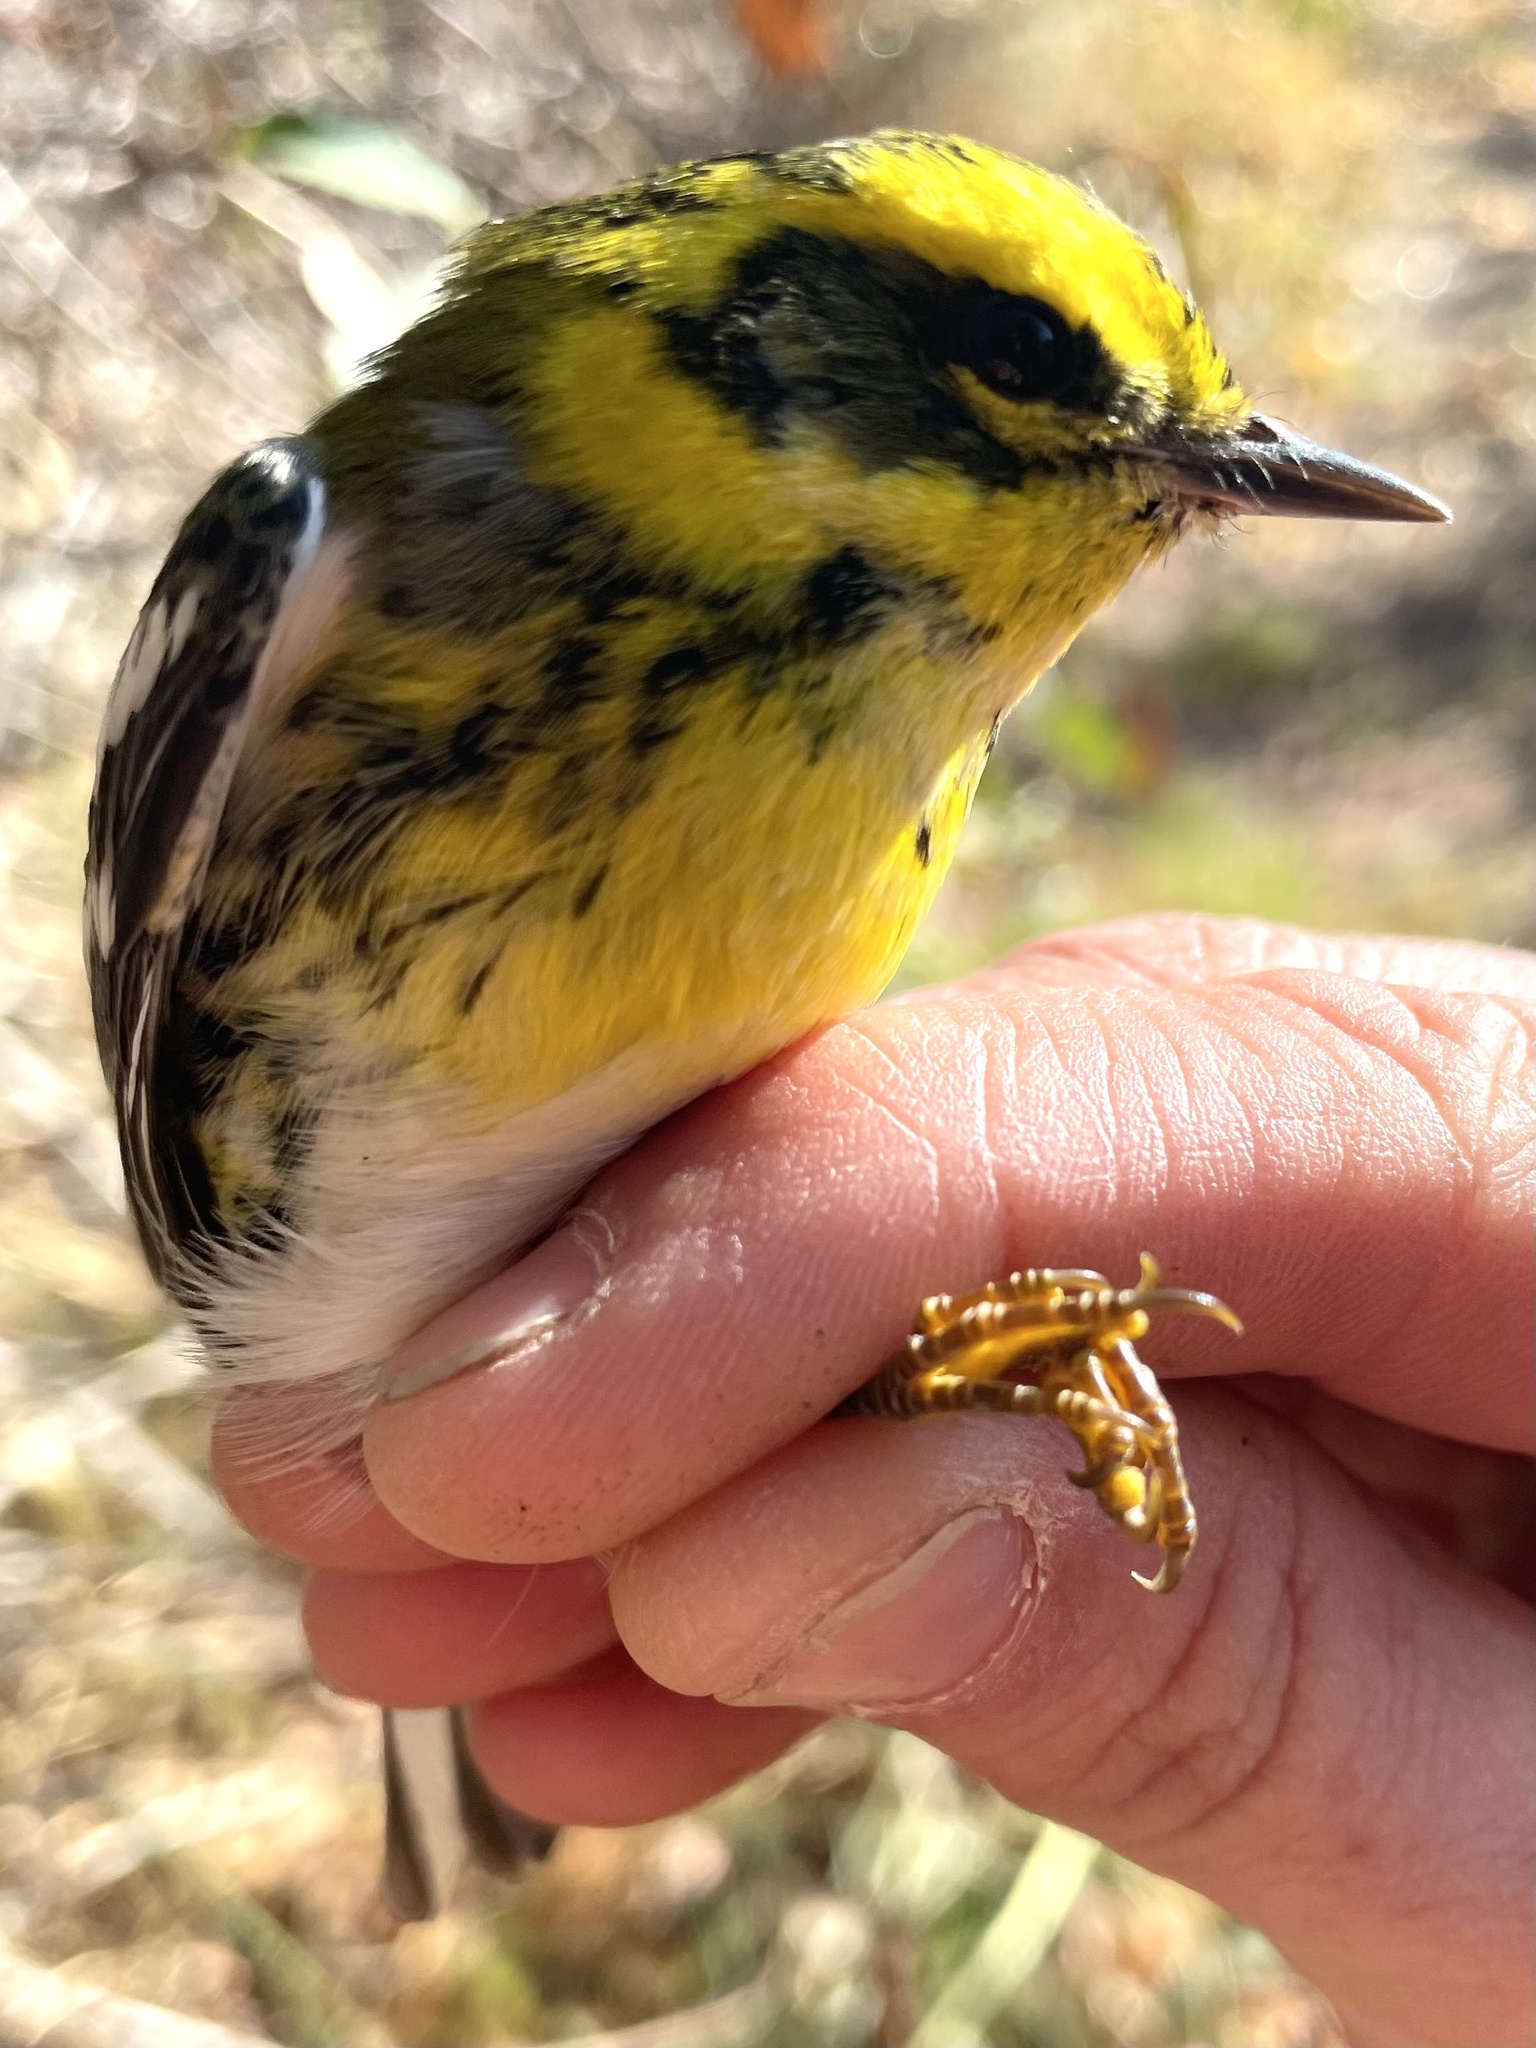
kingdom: Animalia
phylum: Chordata
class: Aves
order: Passeriformes
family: Parulidae
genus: Setophaga
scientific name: Setophaga townsendi
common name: Townsend's warbler
